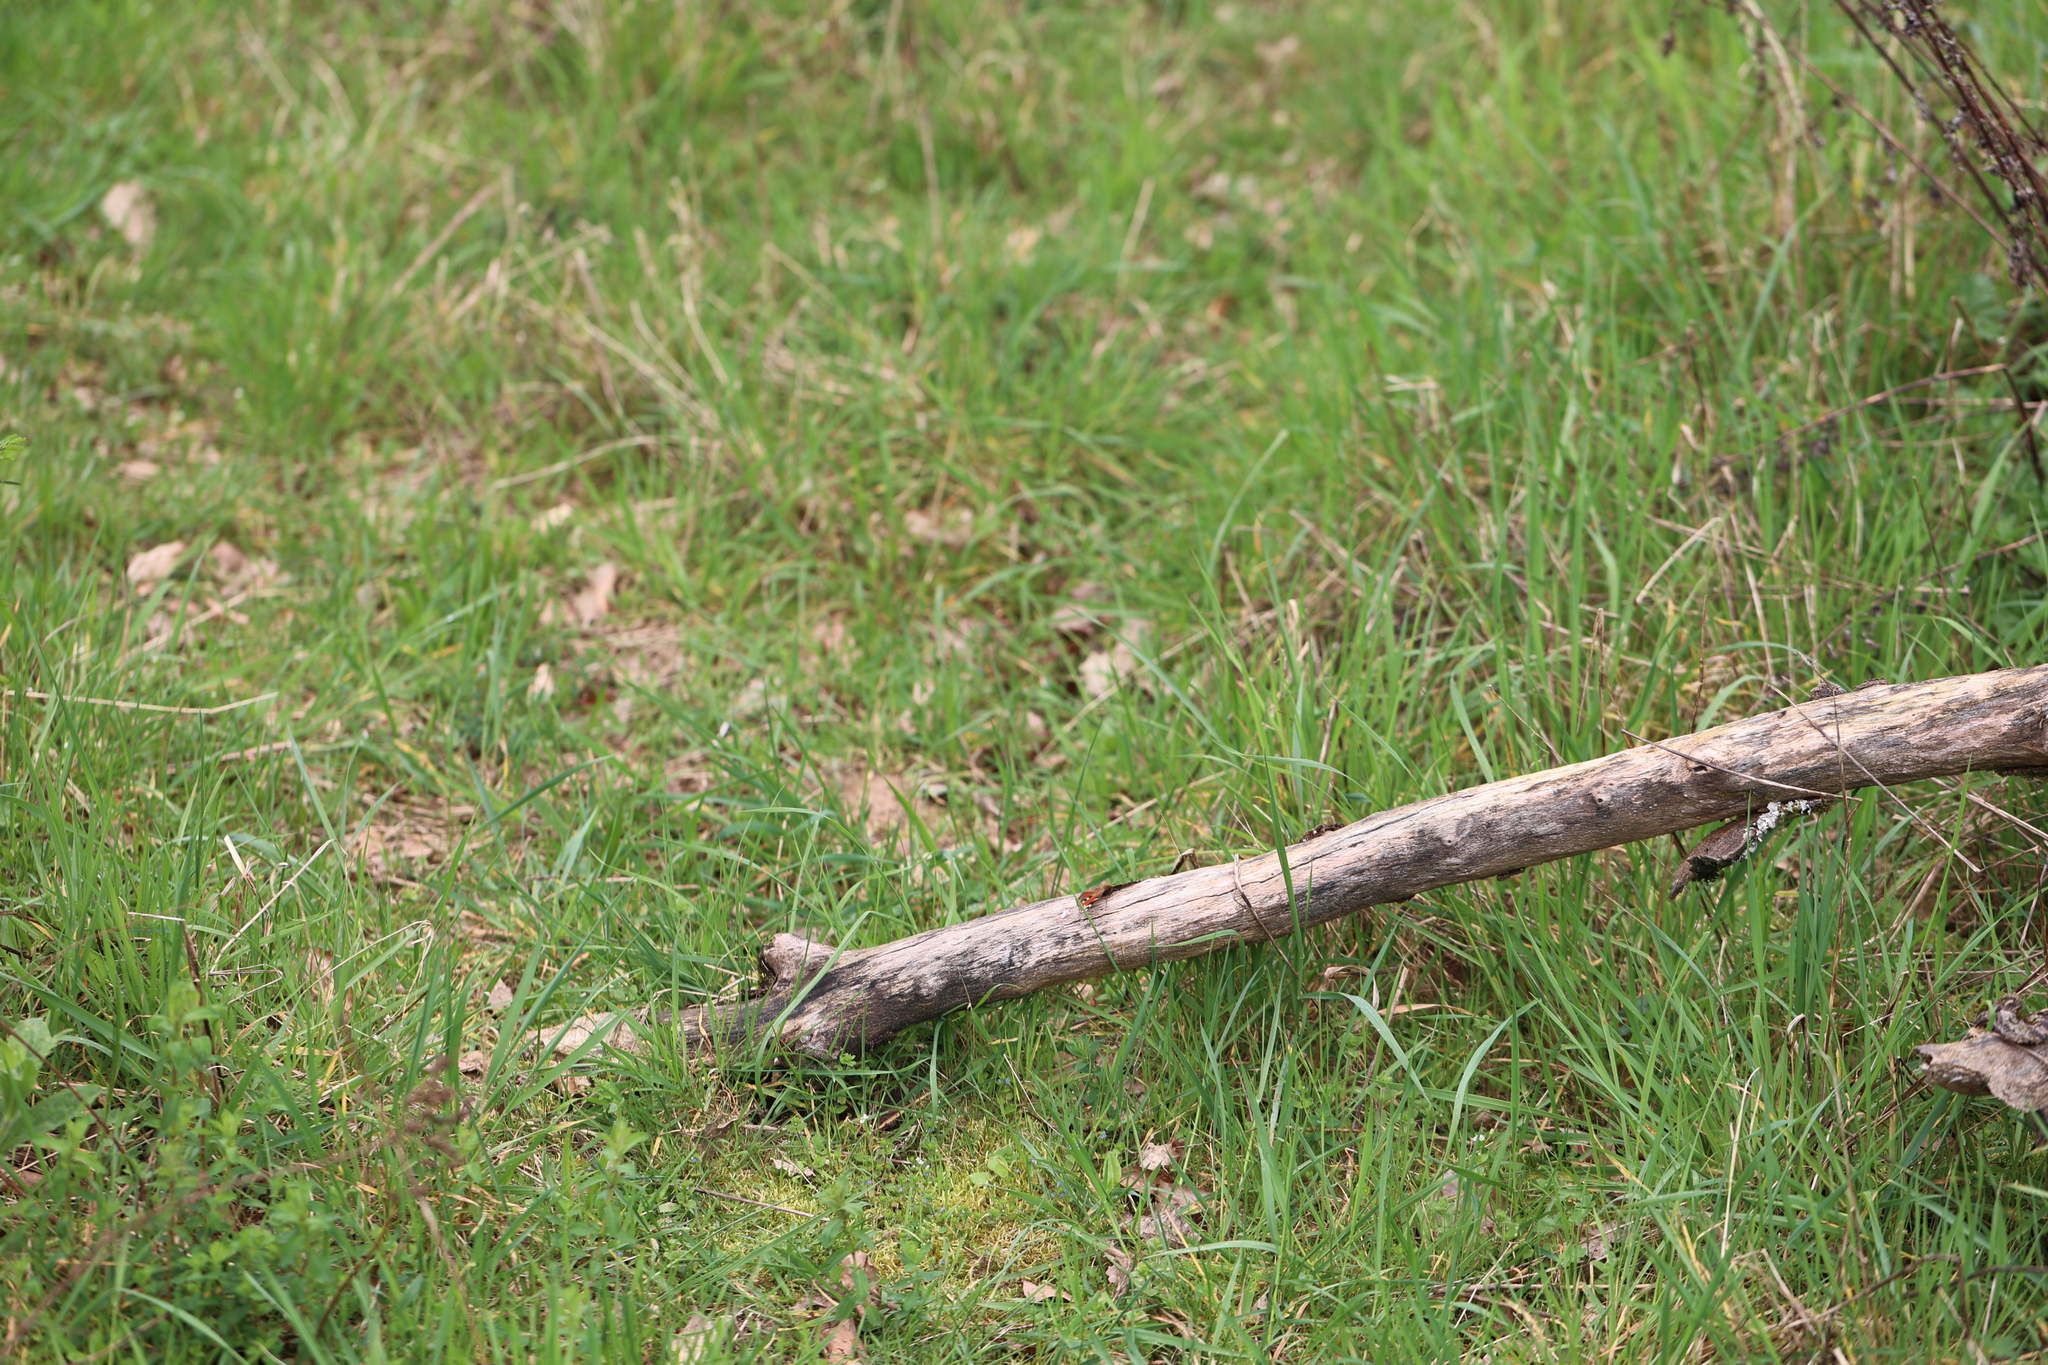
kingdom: Animalia
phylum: Arthropoda
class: Insecta
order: Lepidoptera
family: Nymphalidae
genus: Aglais
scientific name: Aglais io
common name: Peacock
